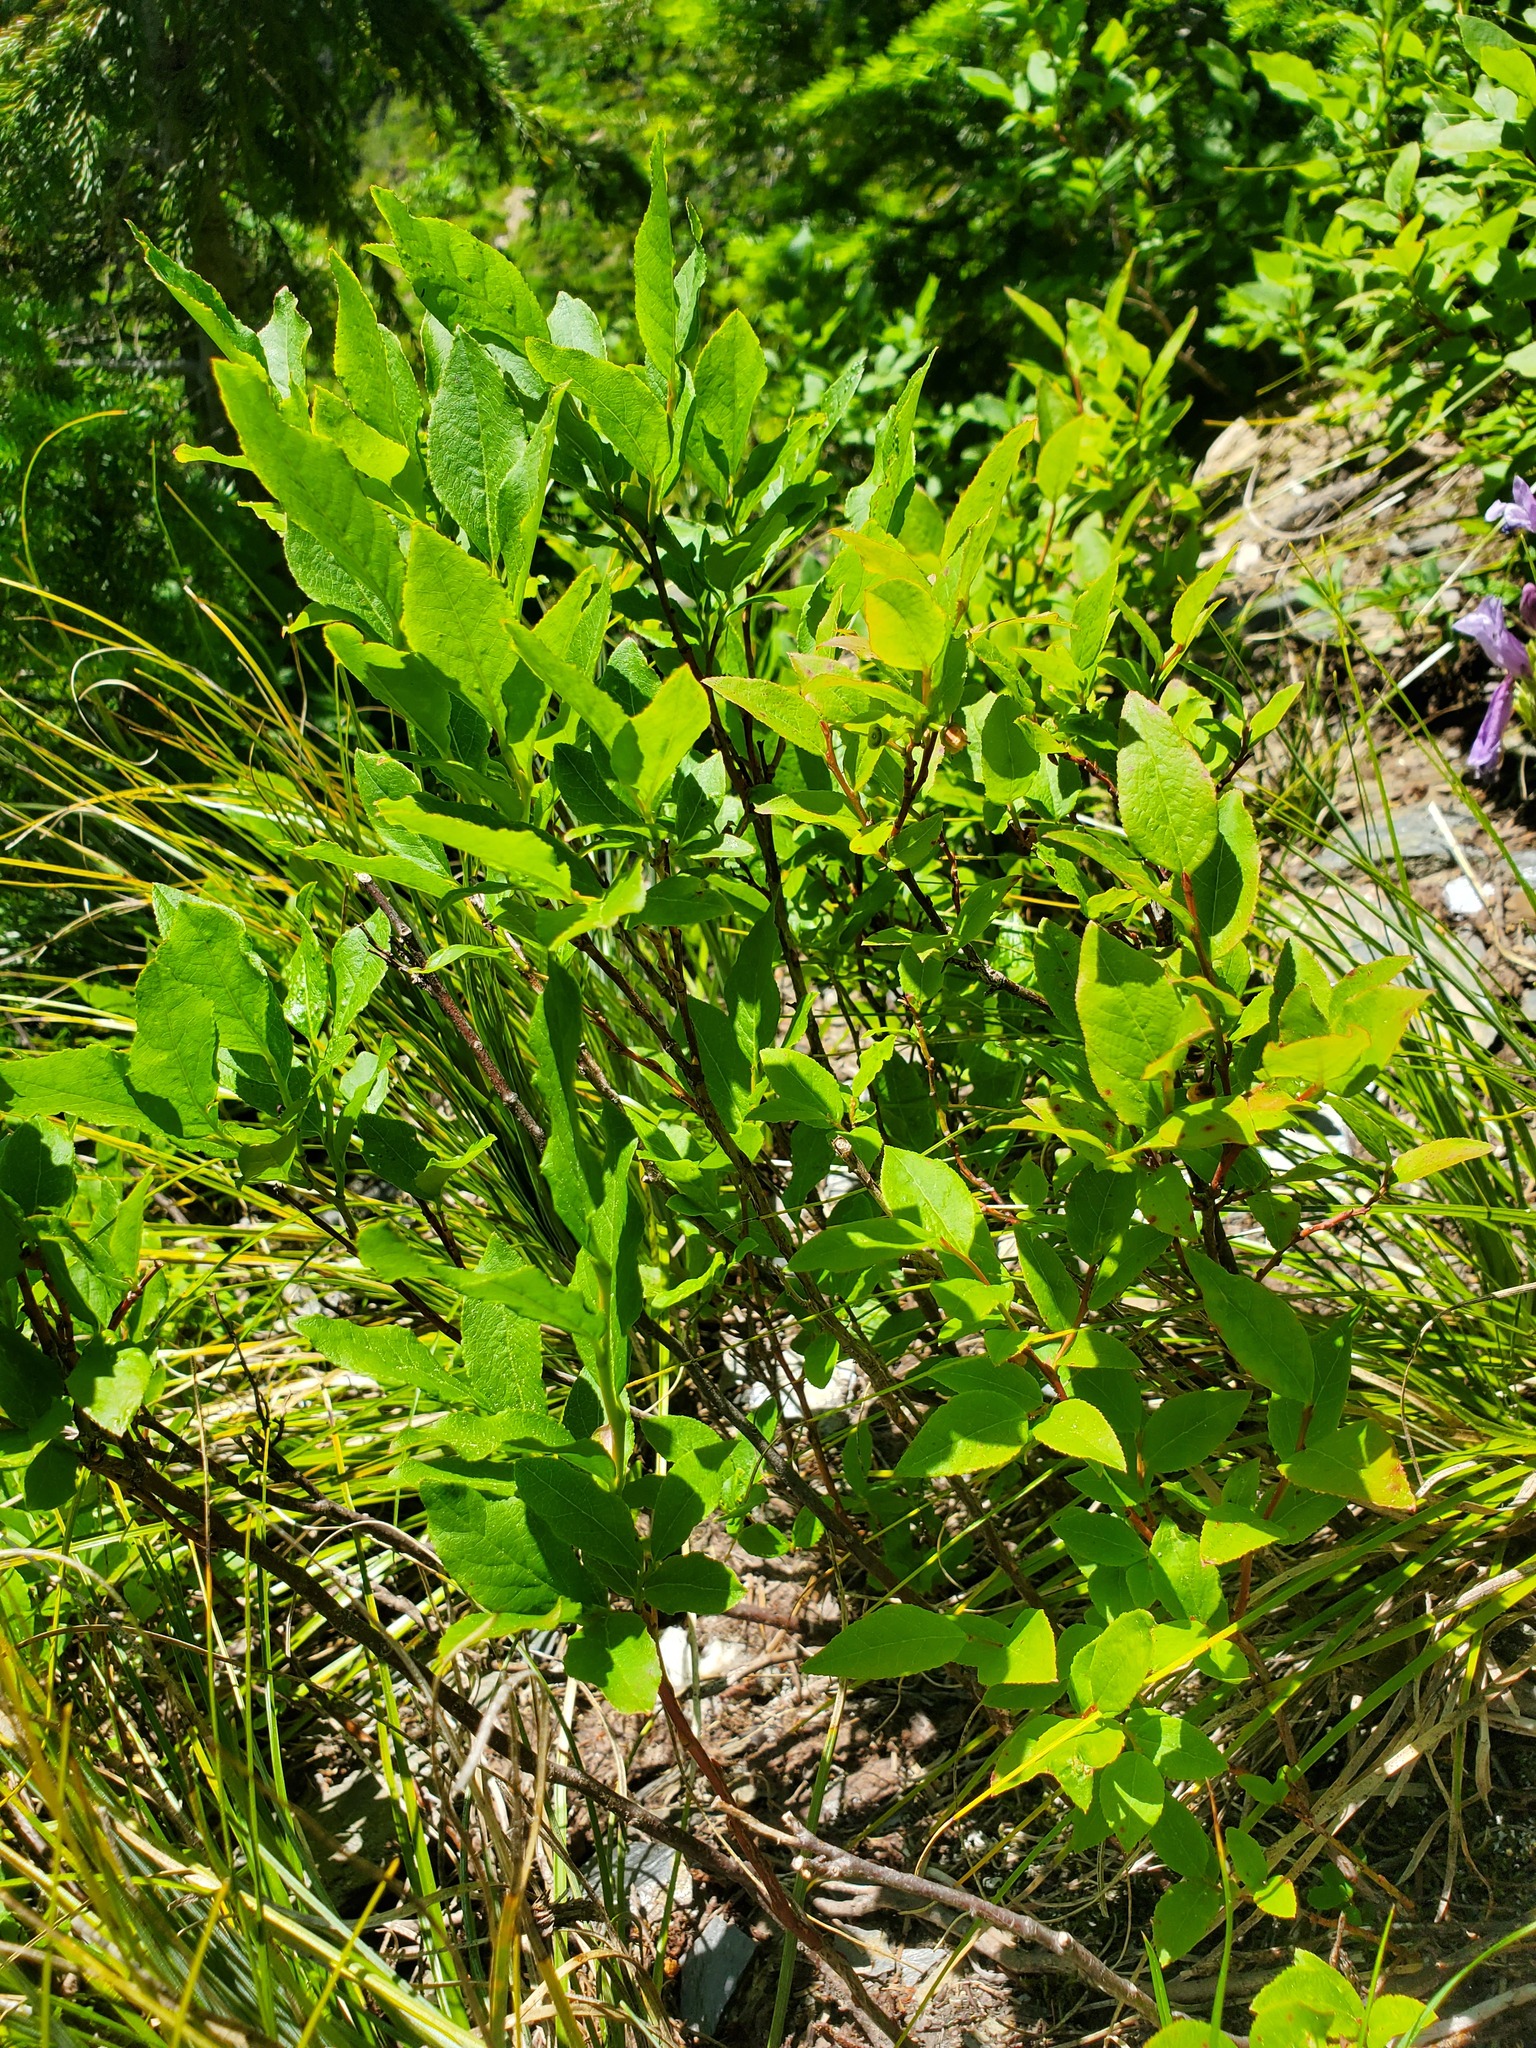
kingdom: Plantae
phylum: Tracheophyta
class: Magnoliopsida
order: Ericales
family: Ericaceae
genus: Vaccinium
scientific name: Vaccinium membranaceum
